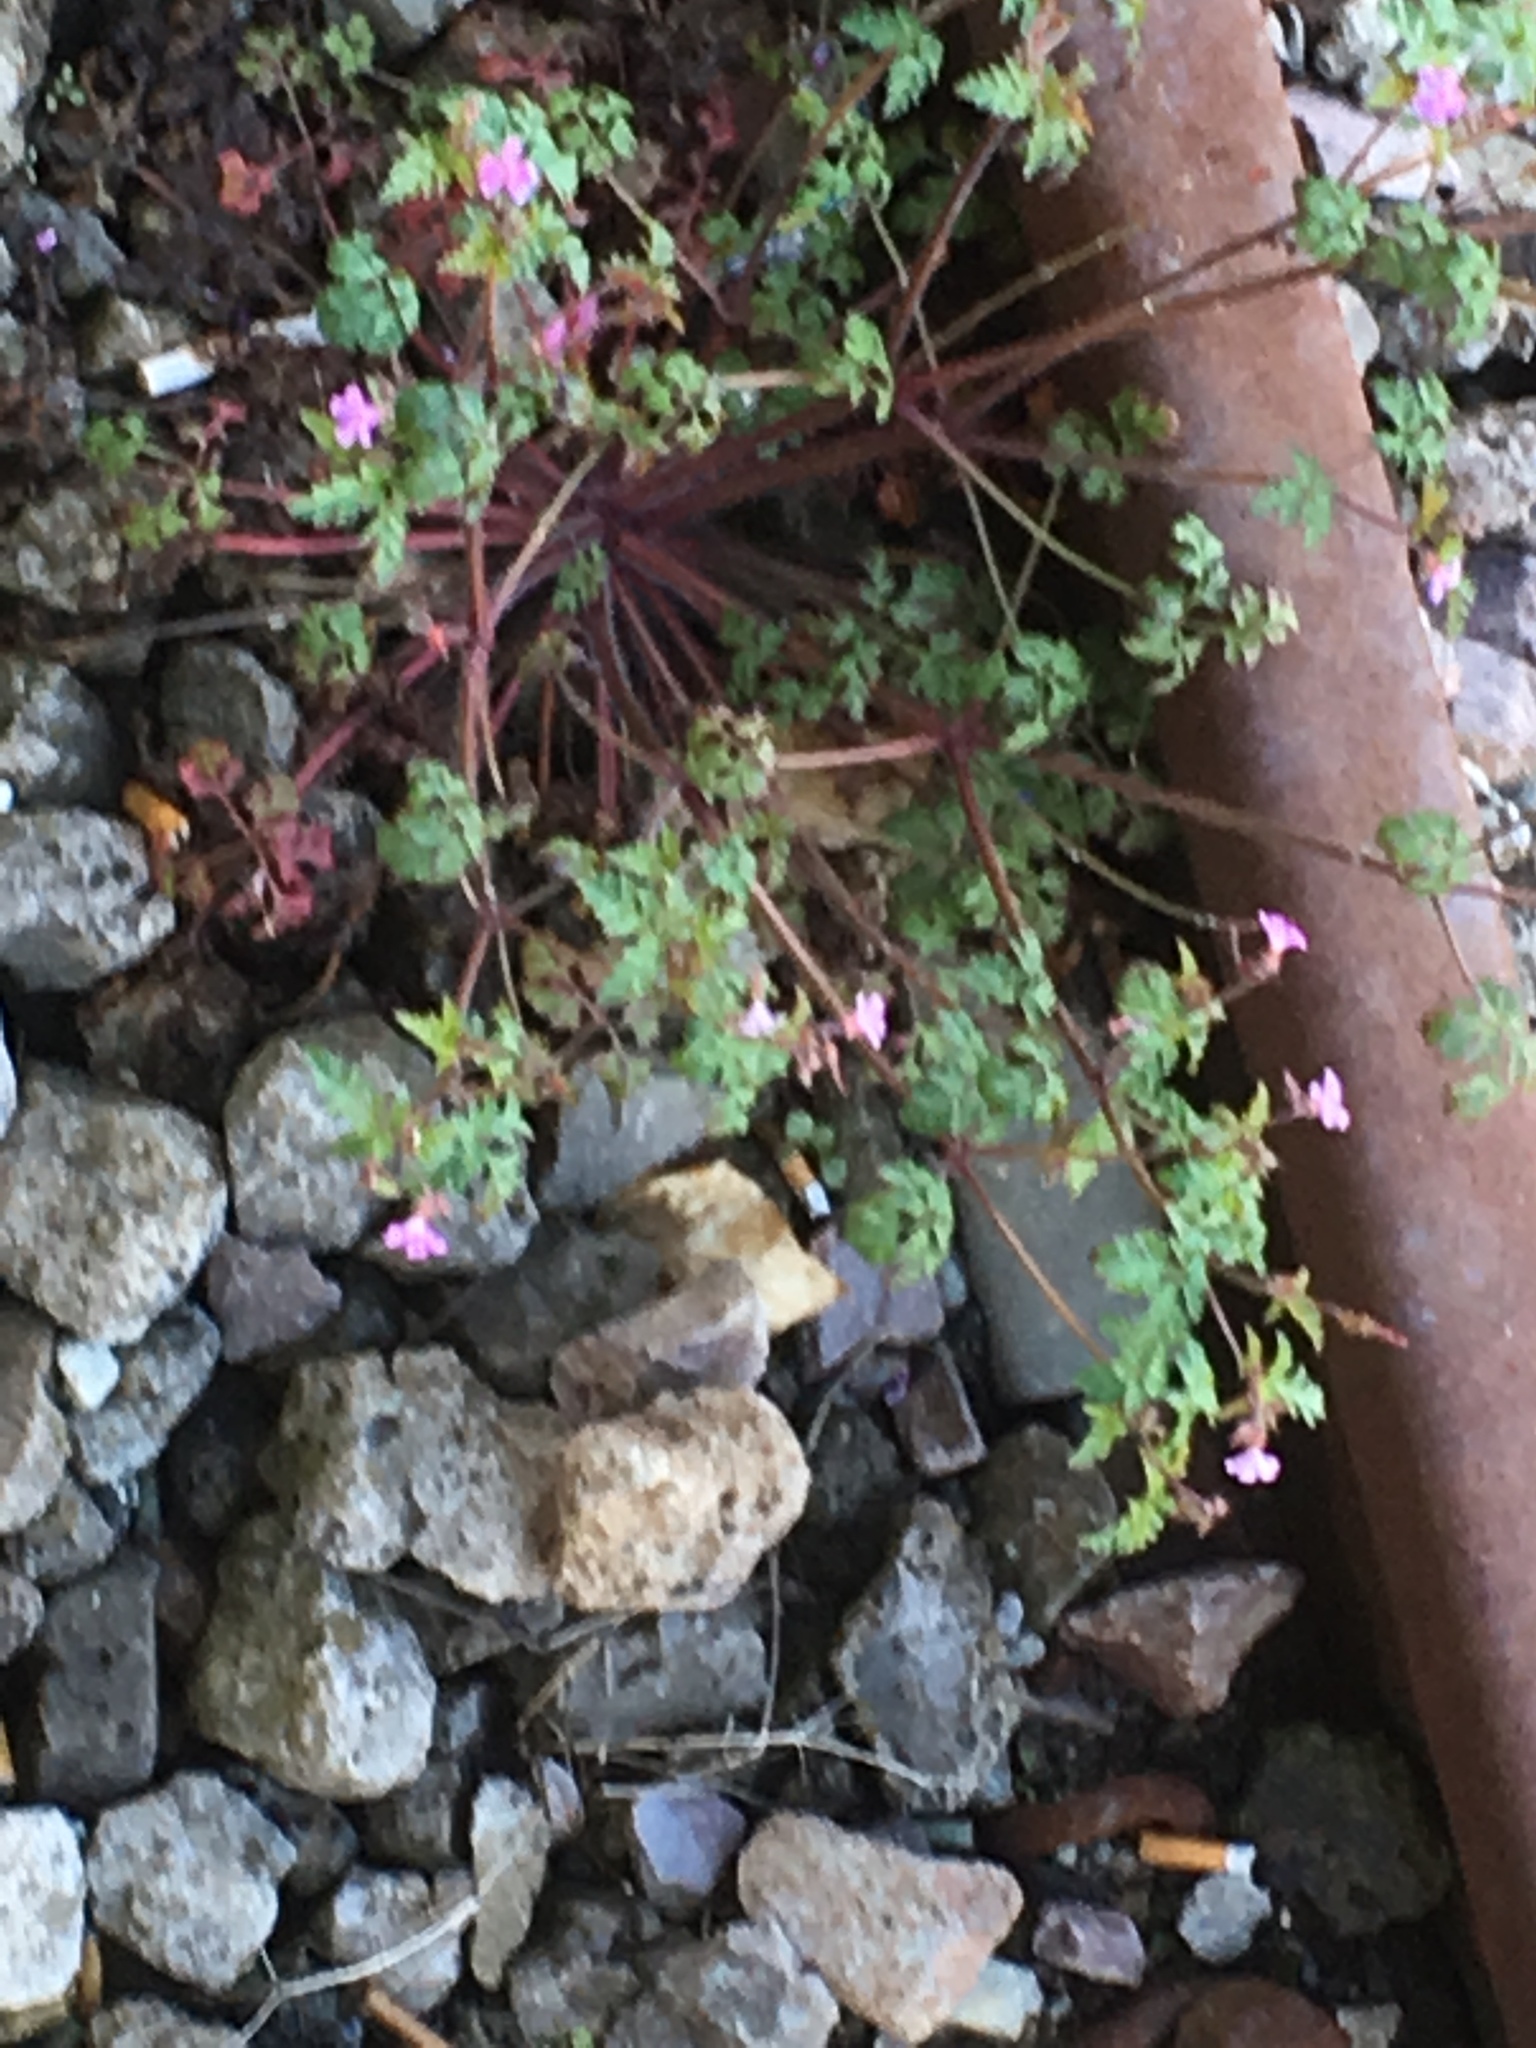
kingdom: Plantae
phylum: Tracheophyta
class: Magnoliopsida
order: Geraniales
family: Geraniaceae
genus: Geranium
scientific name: Geranium robertianum
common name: Herb-robert
